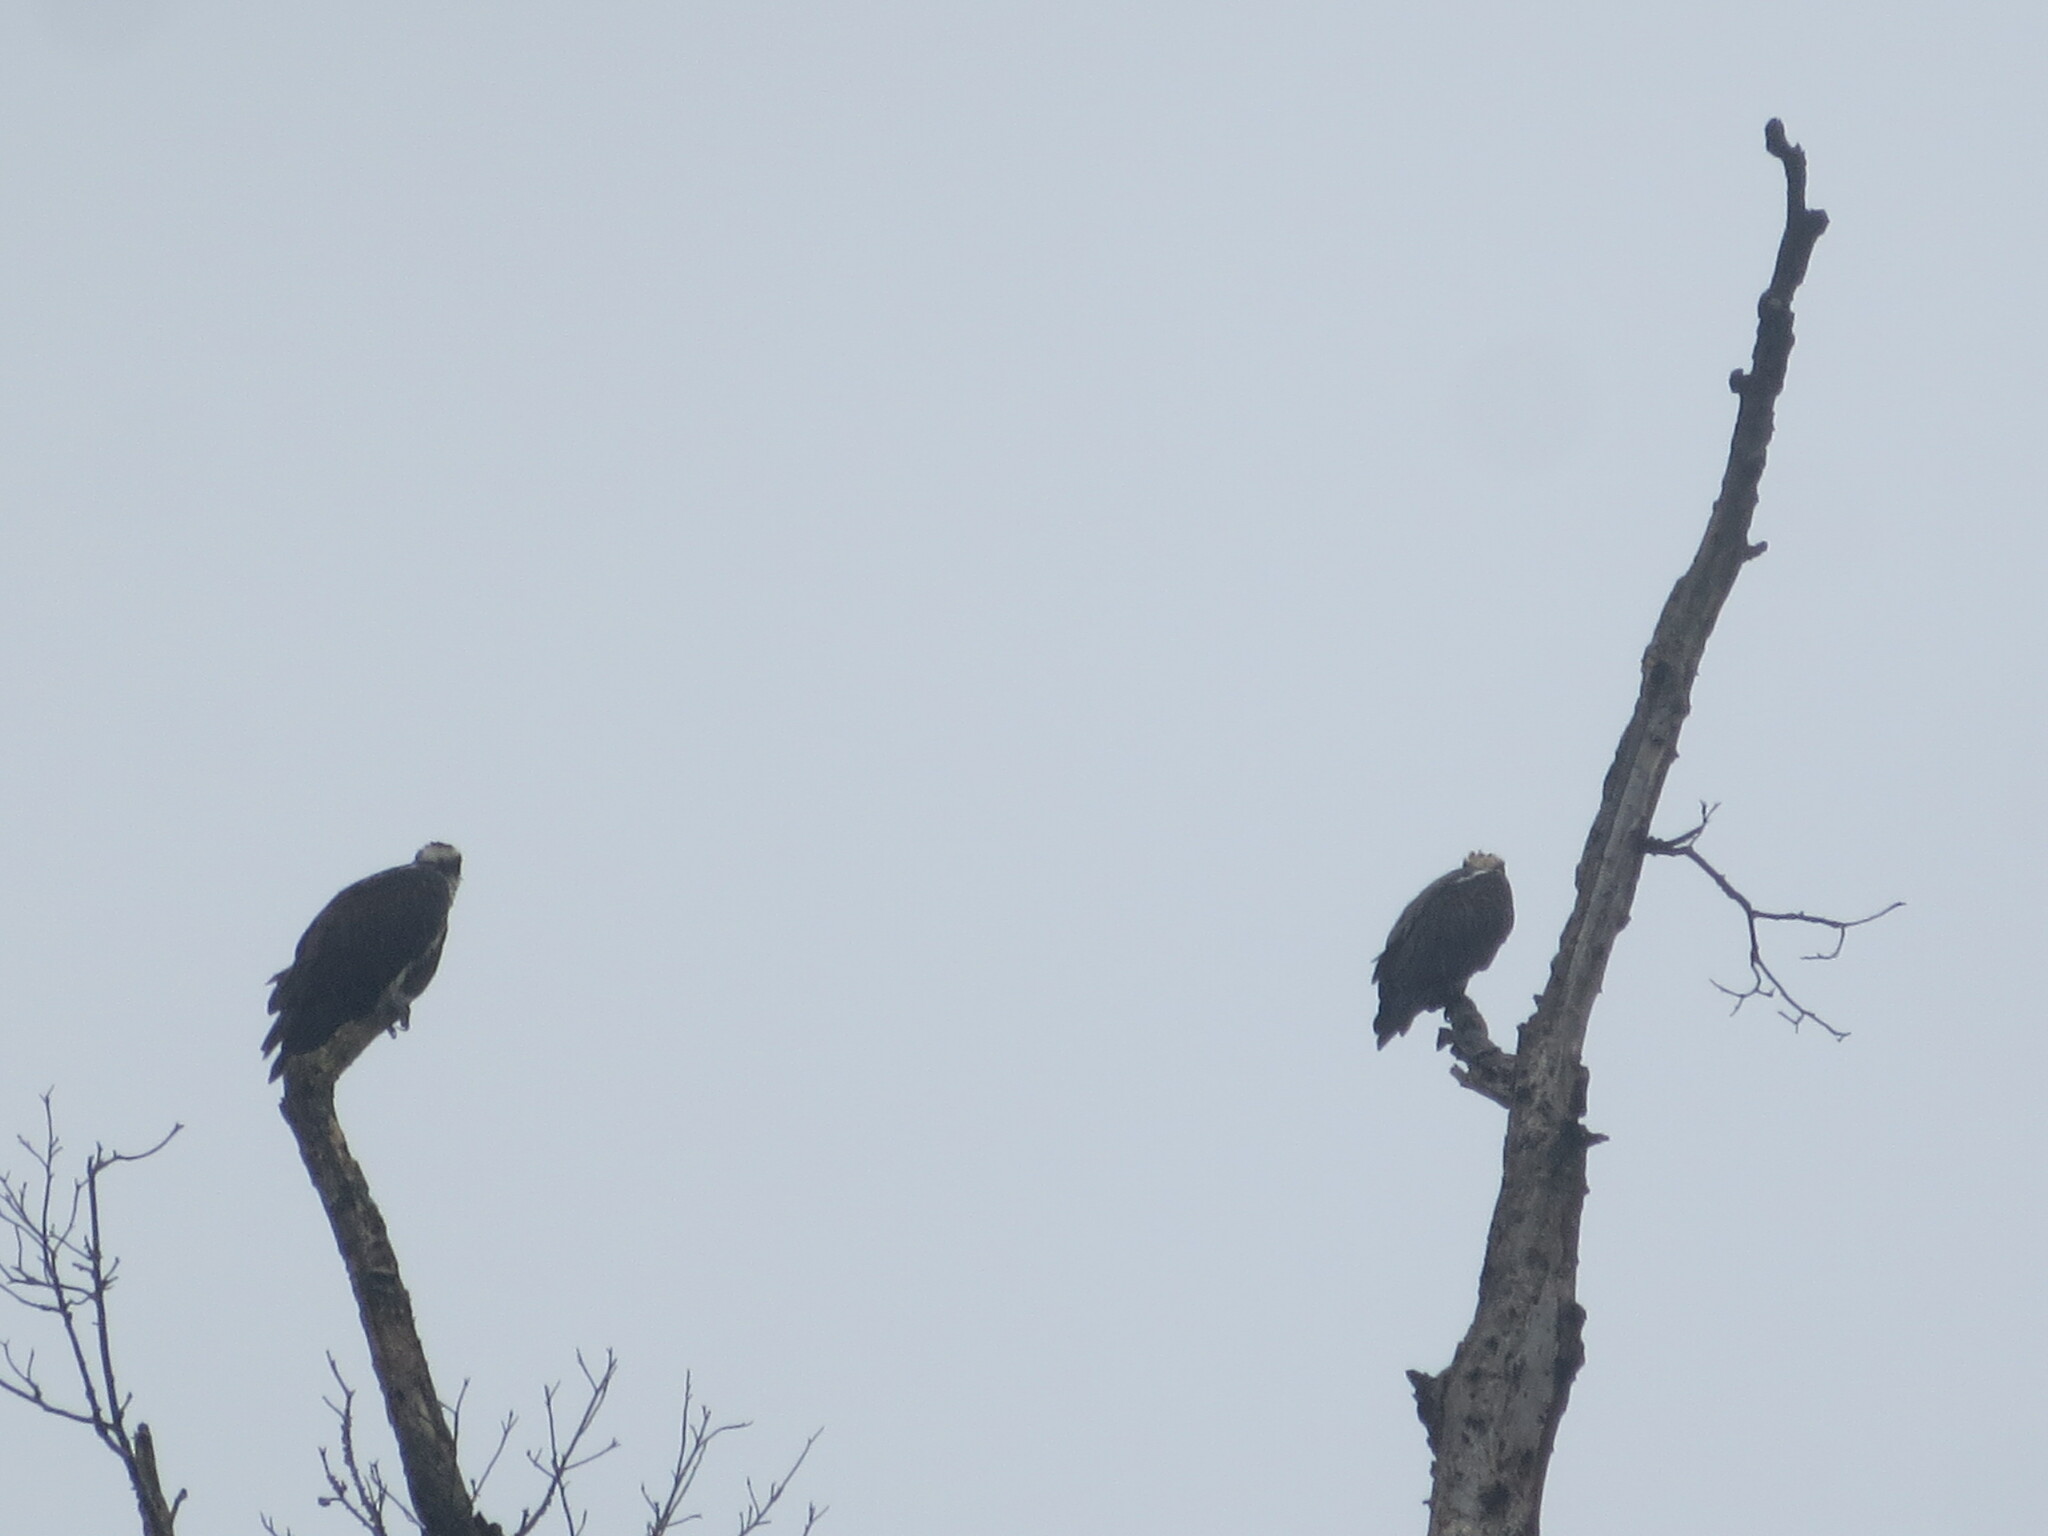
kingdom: Animalia
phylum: Chordata
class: Aves
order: Accipitriformes
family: Pandionidae
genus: Pandion
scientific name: Pandion haliaetus
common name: Osprey
